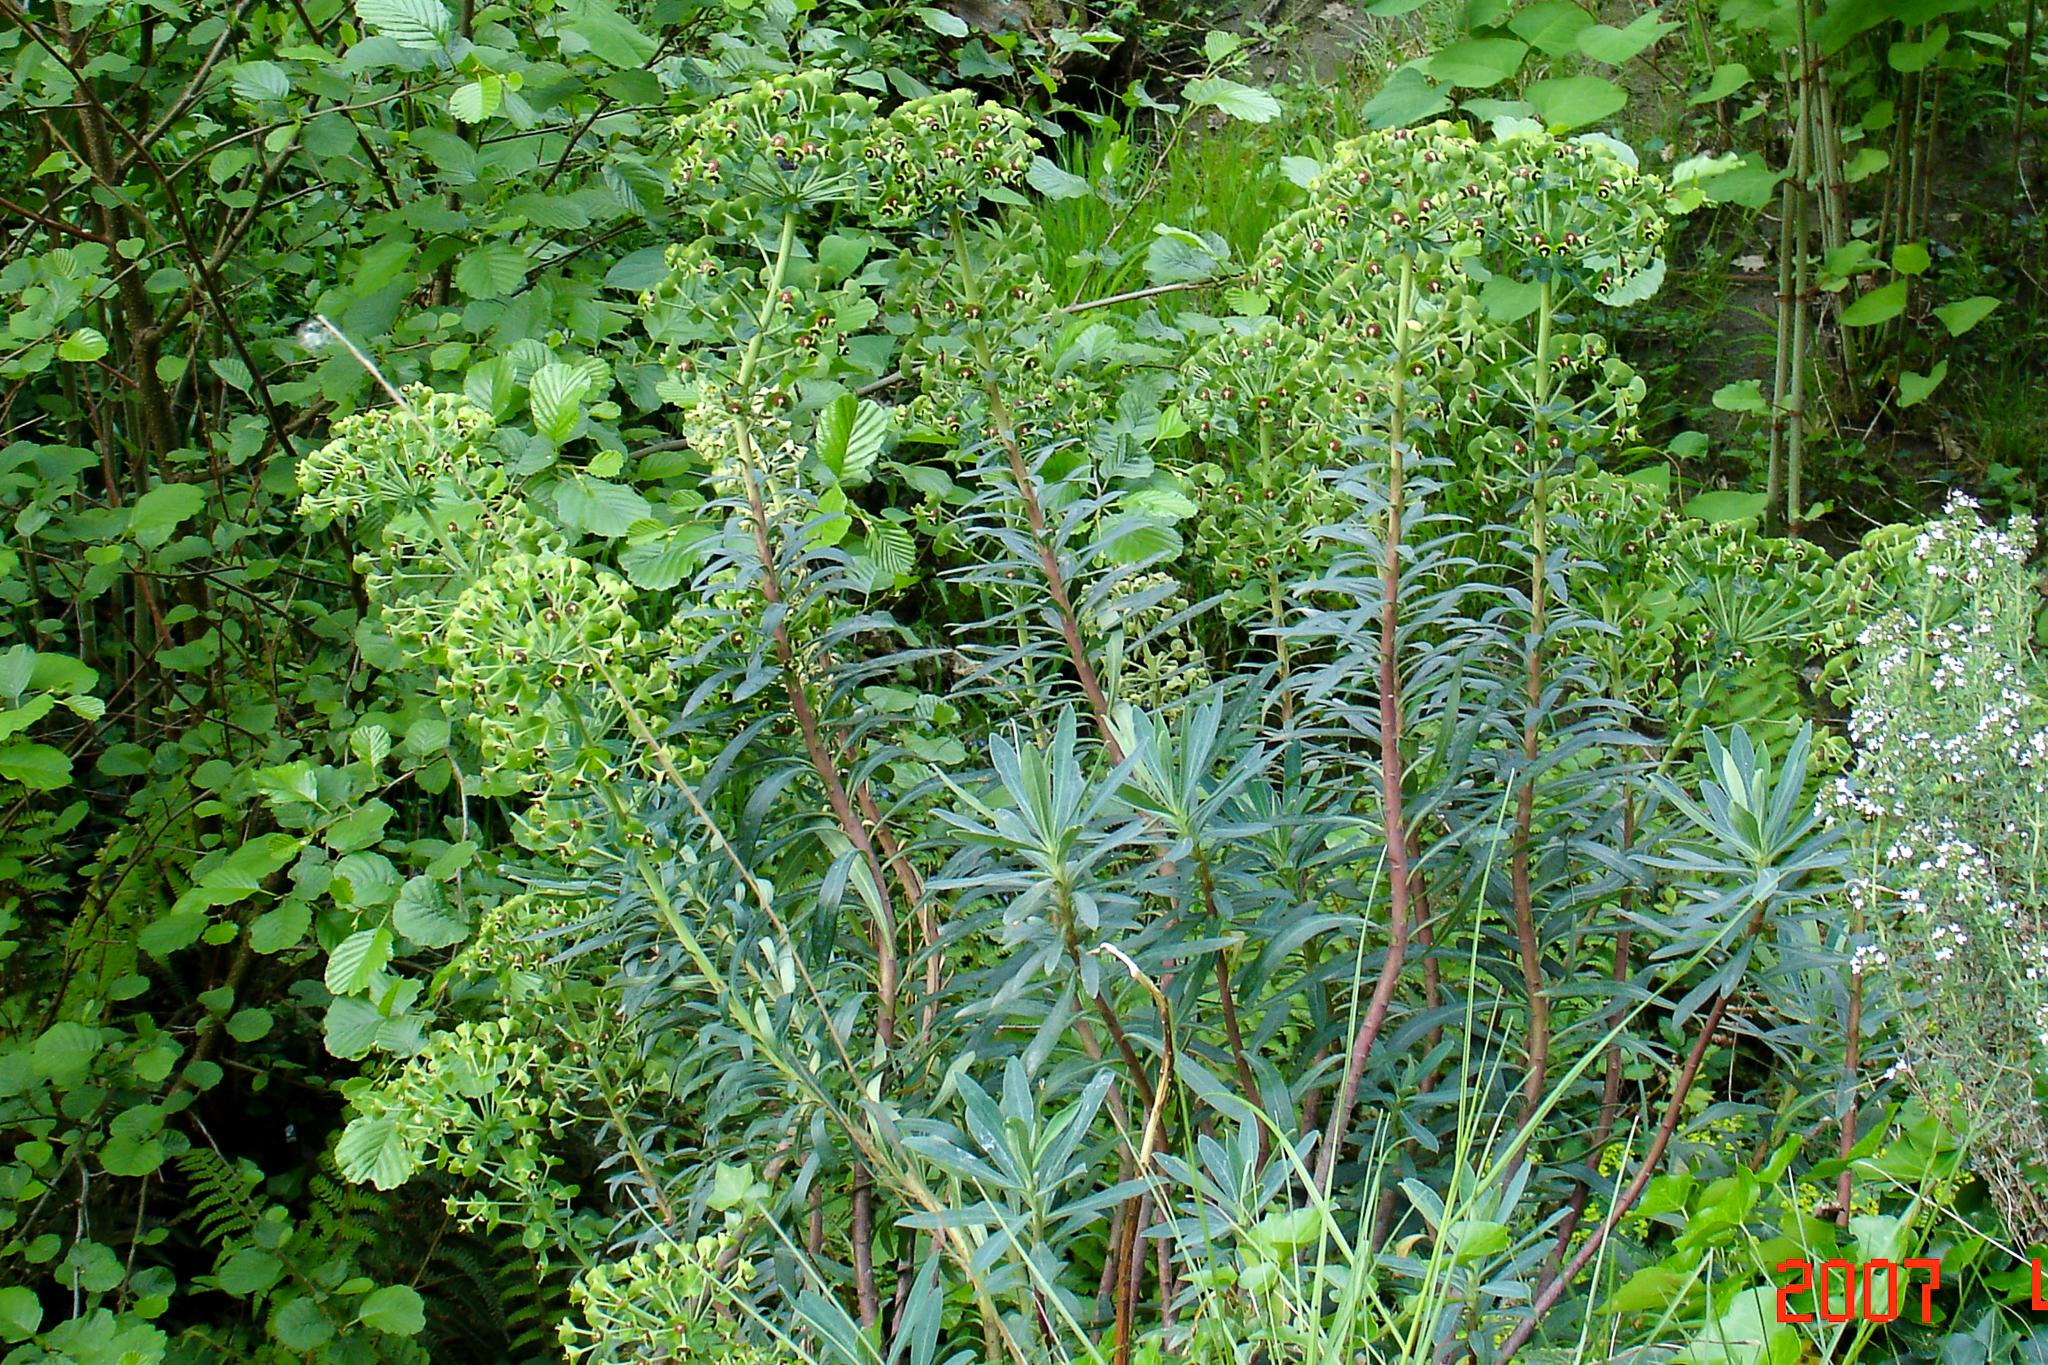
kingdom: Plantae
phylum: Tracheophyta
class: Magnoliopsida
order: Malpighiales
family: Euphorbiaceae
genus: Euphorbia
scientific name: Euphorbia characias
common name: Mediterranean spurge
